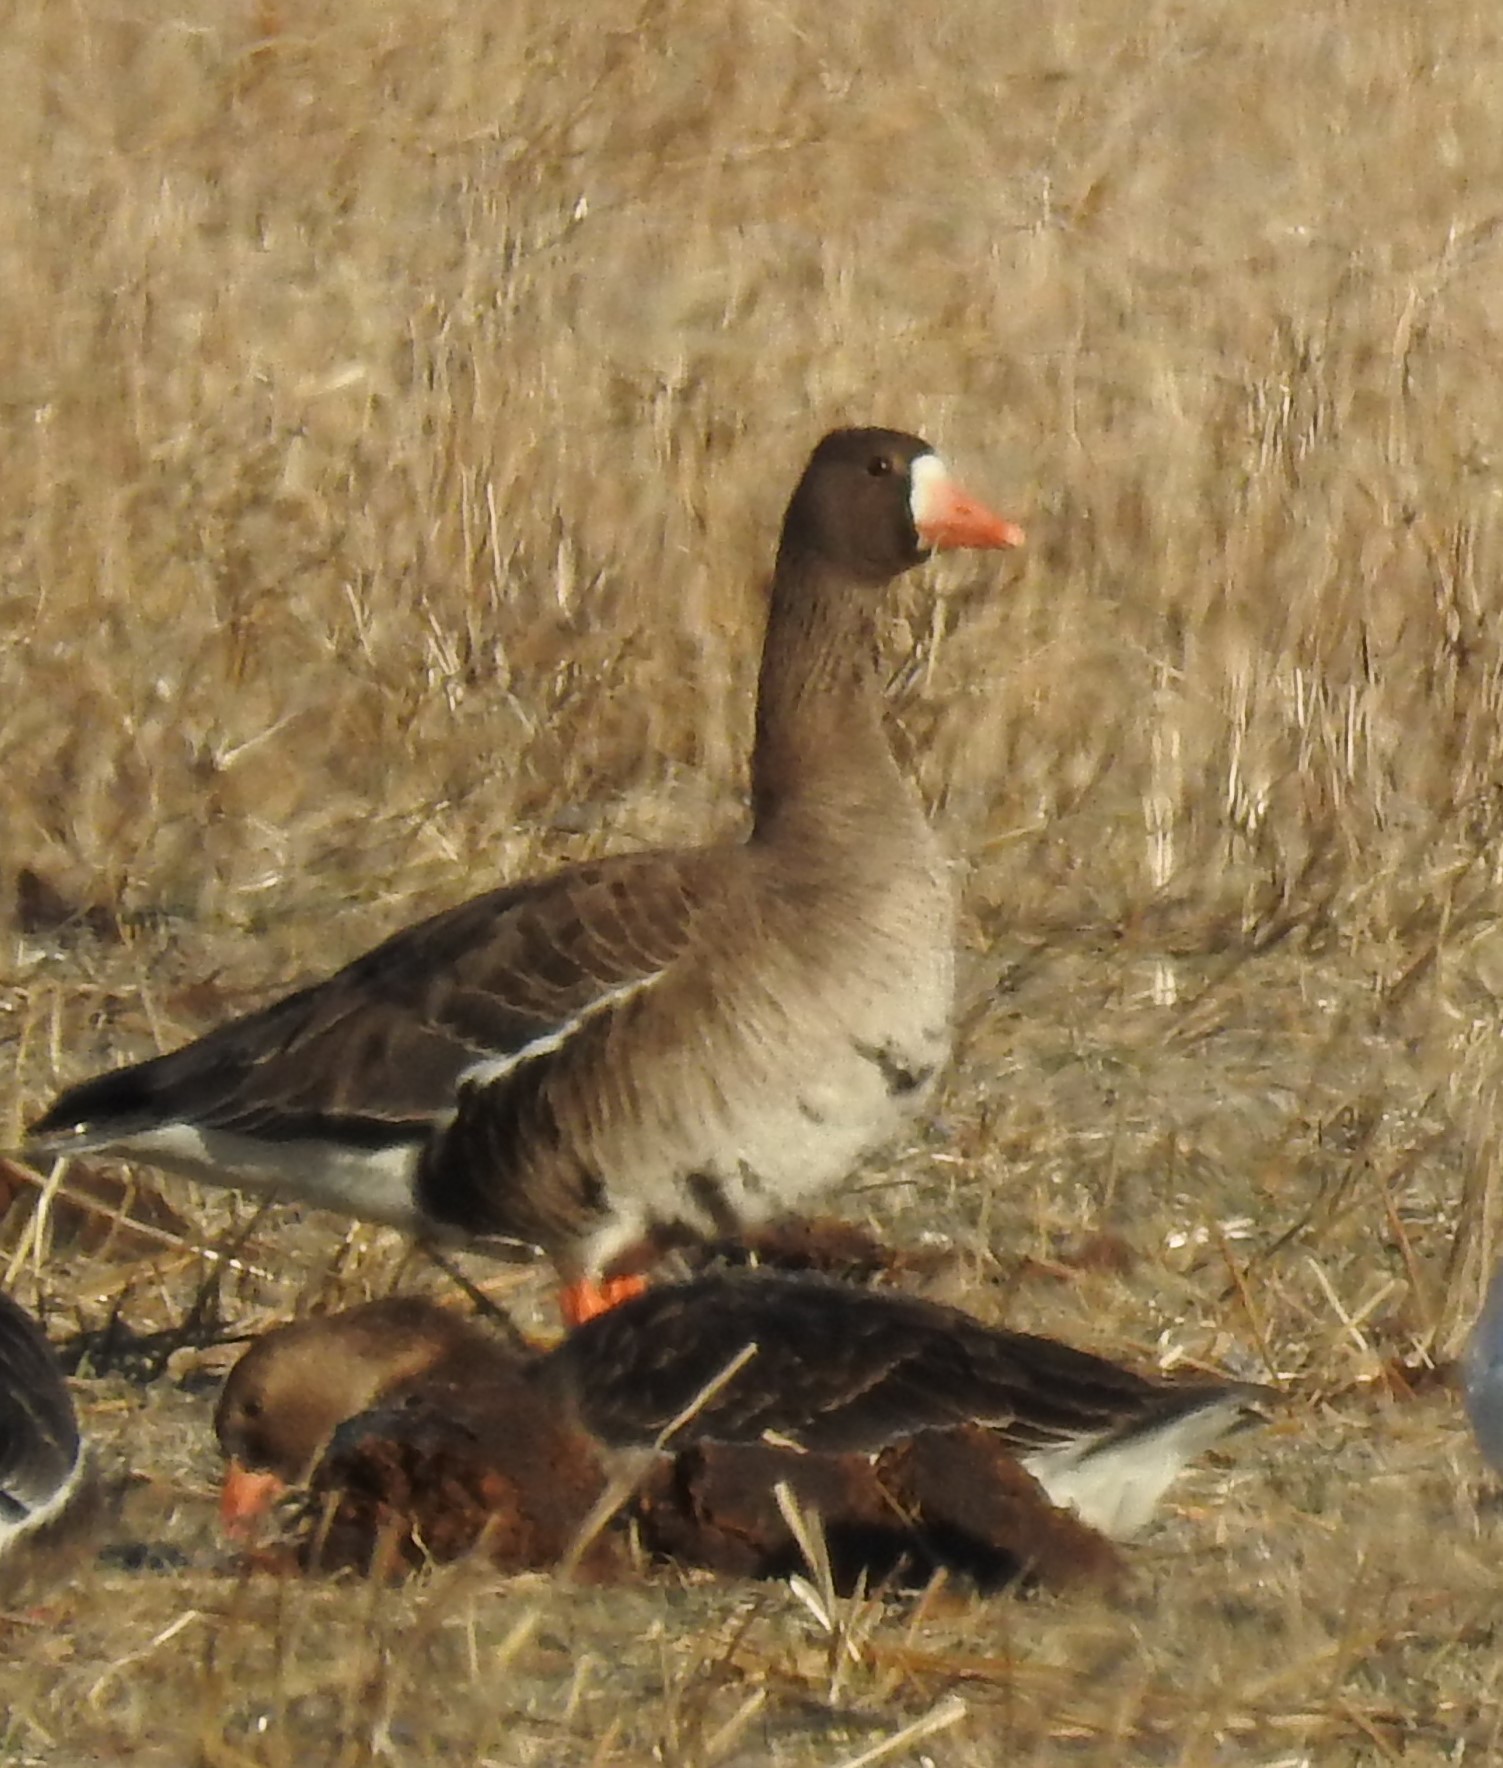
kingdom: Animalia
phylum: Chordata
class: Aves
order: Anseriformes
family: Anatidae
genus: Anser
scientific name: Anser albifrons
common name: Greater white-fronted goose
